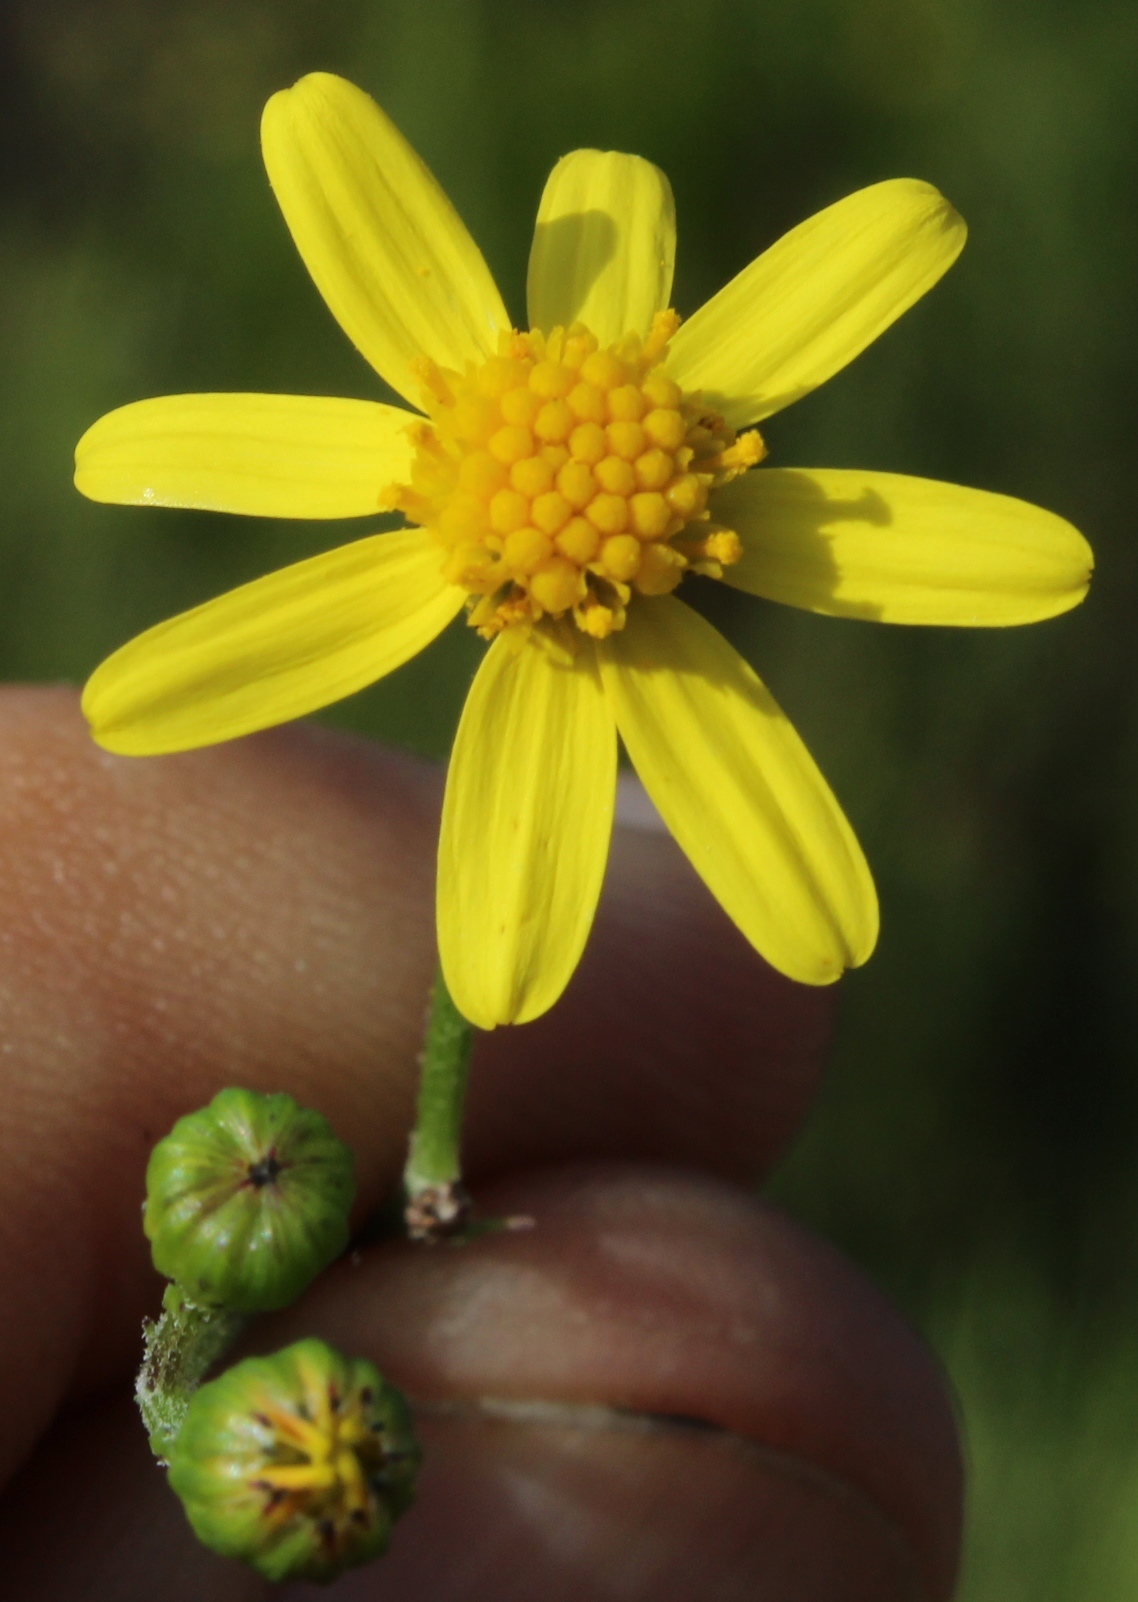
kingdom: Plantae
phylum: Tracheophyta
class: Magnoliopsida
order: Asterales
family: Asteraceae
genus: Senecio
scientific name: Senecio burchellii
